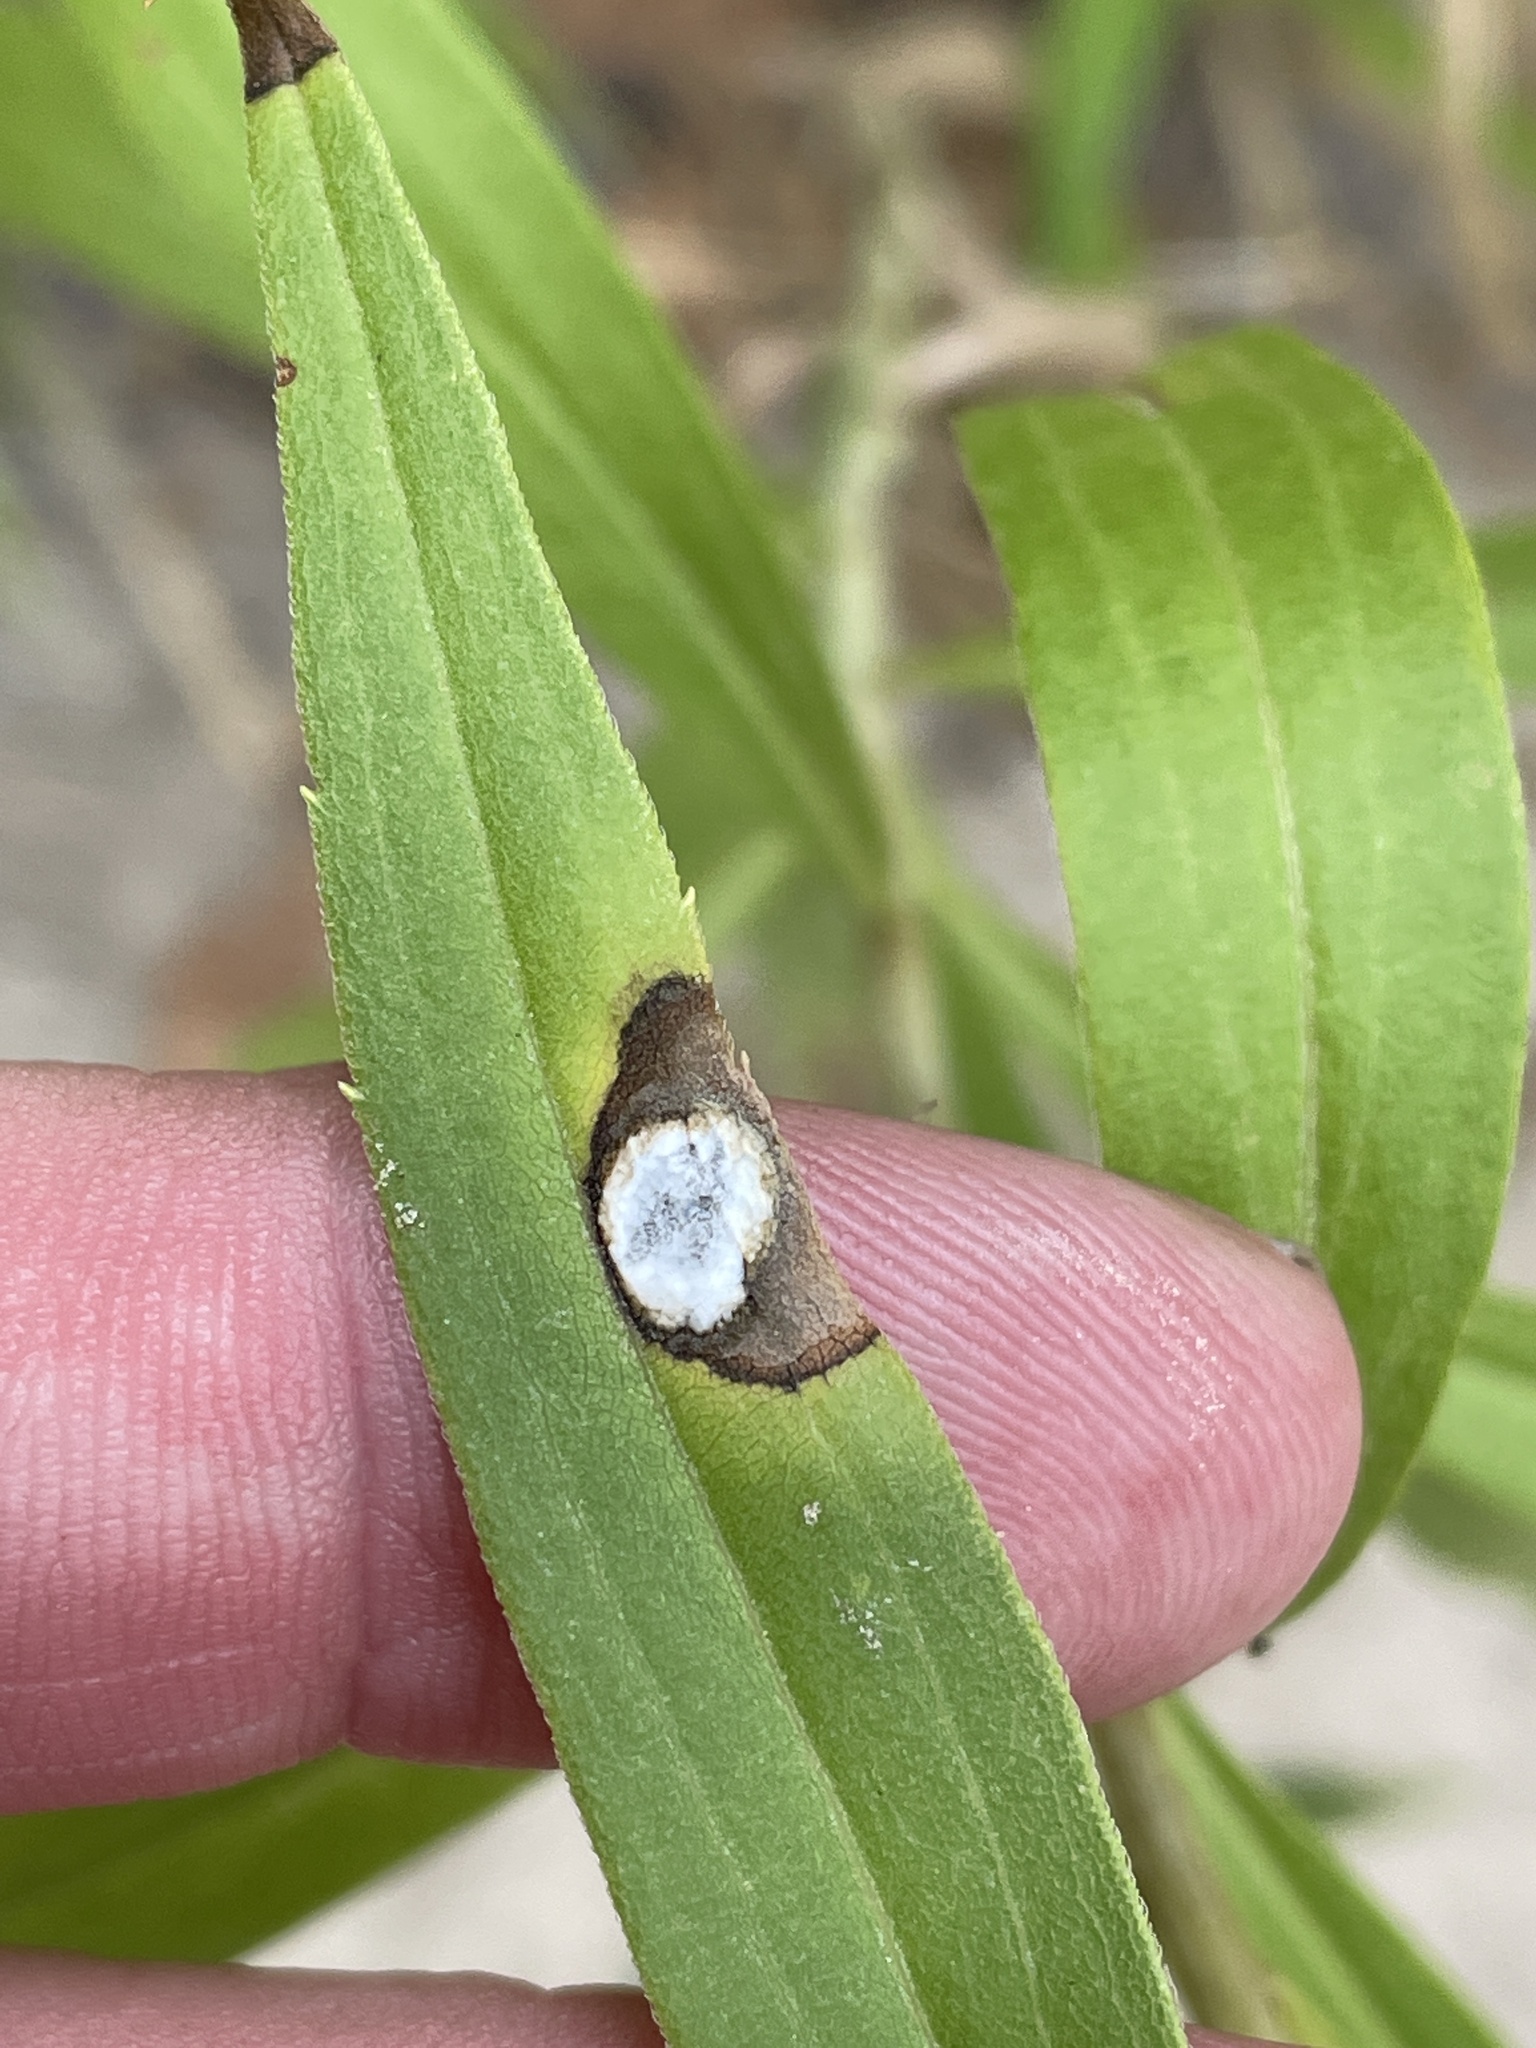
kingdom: Animalia
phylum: Arthropoda
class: Insecta
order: Diptera
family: Cecidomyiidae
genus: Asteromyia
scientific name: Asteromyia carbonifera
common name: Carbonifera goldenrod gall midge
